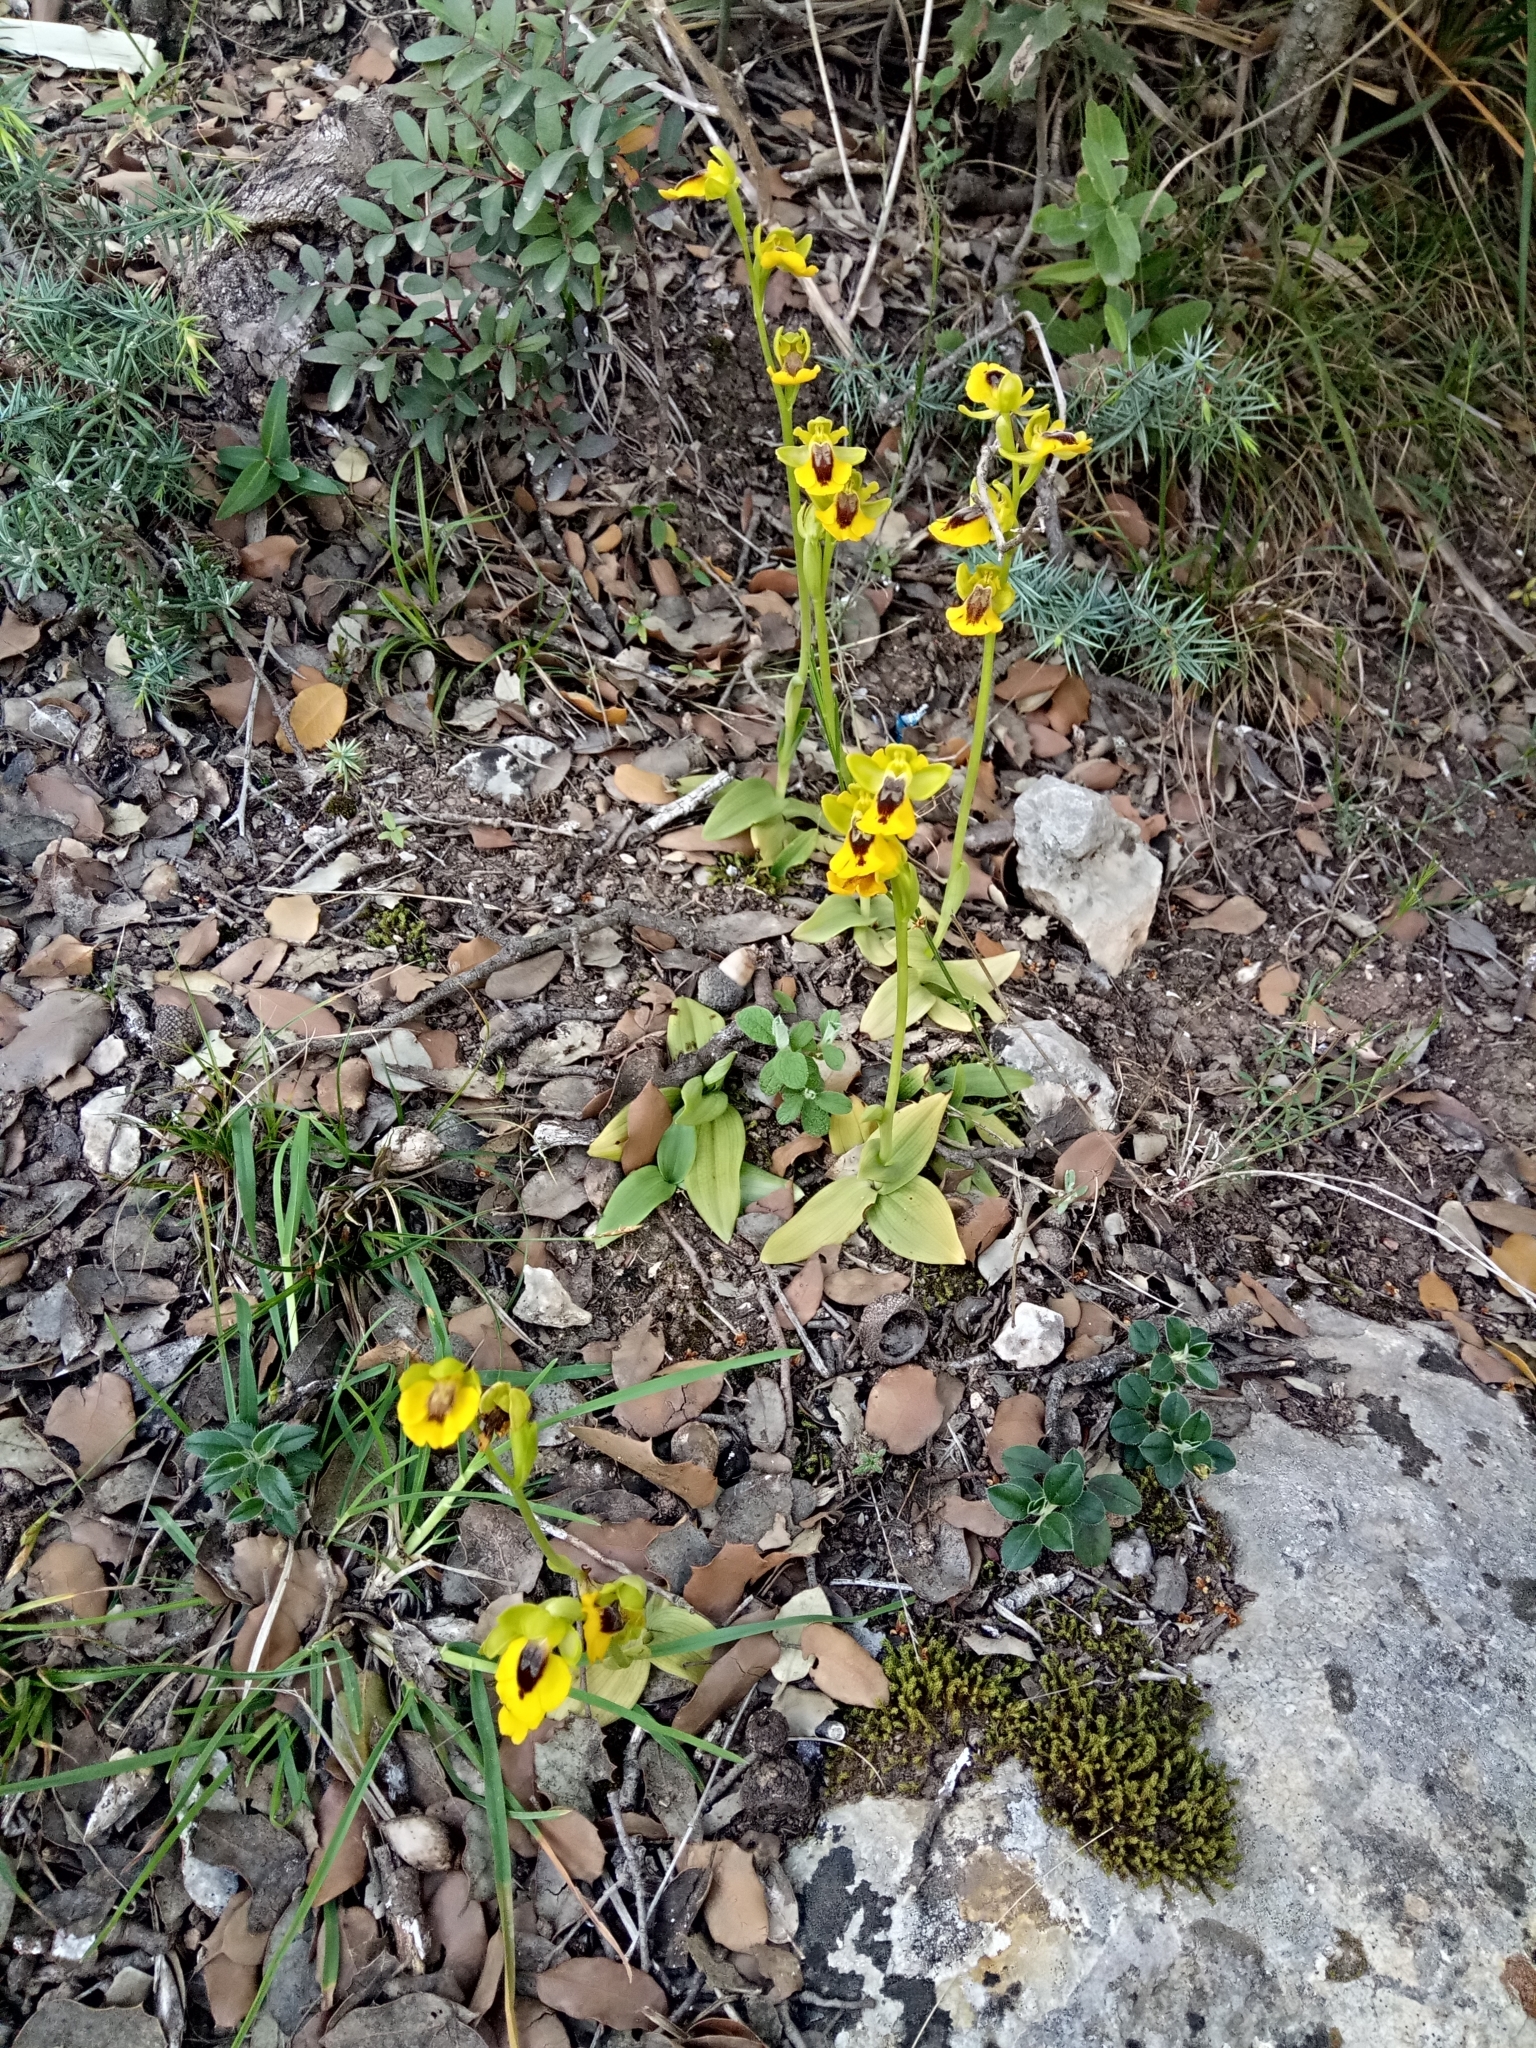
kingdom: Plantae
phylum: Tracheophyta
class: Liliopsida
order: Asparagales
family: Orchidaceae
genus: Ophrys
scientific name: Ophrys lutea
